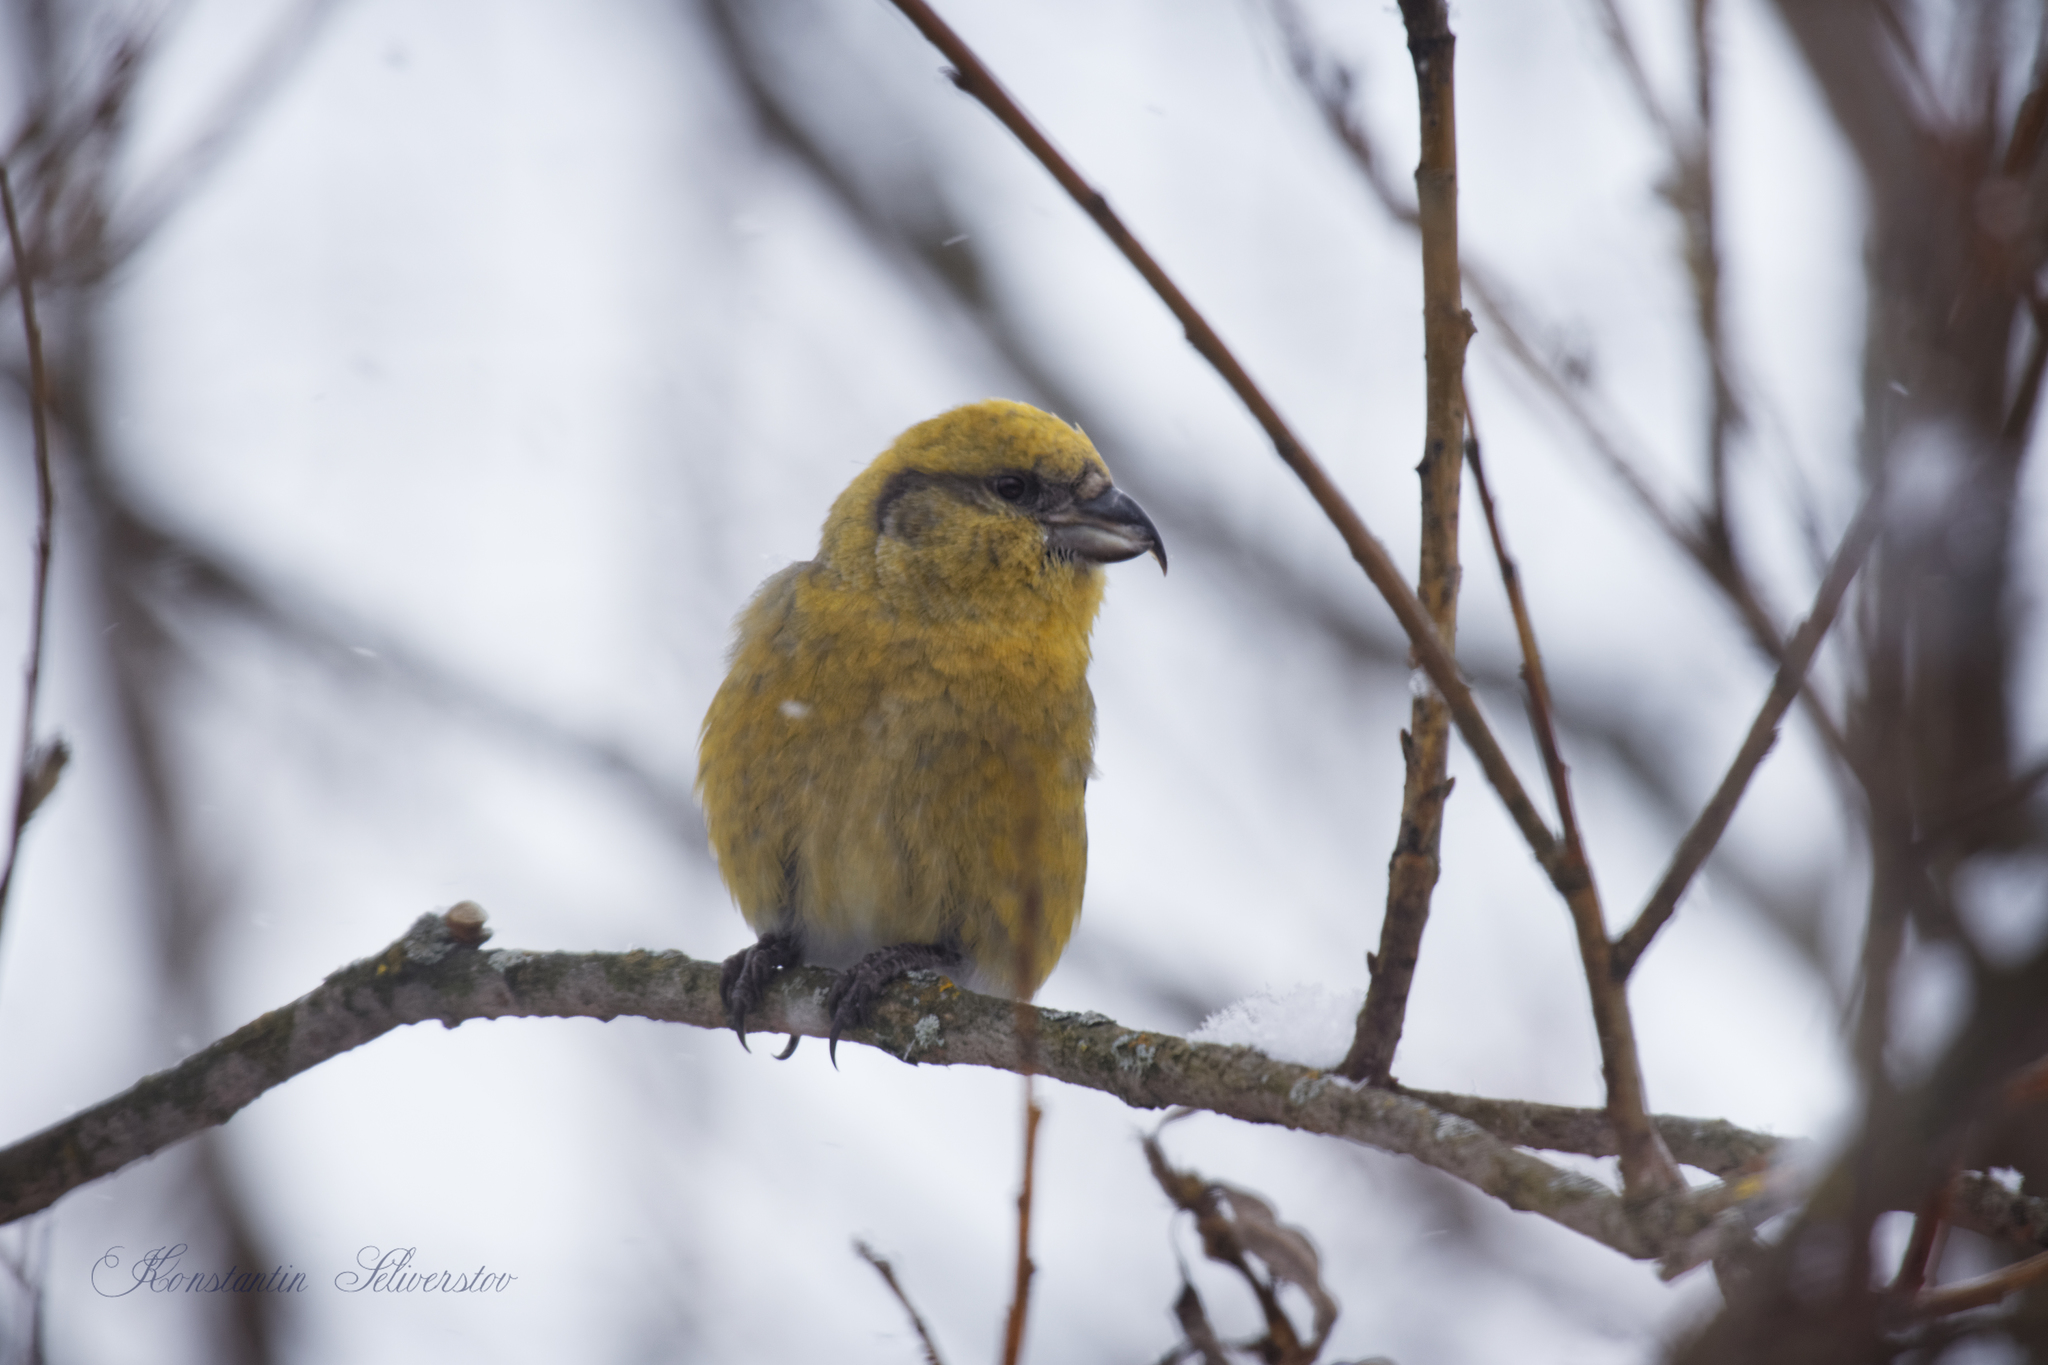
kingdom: Animalia
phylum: Chordata
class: Aves
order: Passeriformes
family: Fringillidae
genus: Loxia
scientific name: Loxia curvirostra
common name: Red crossbill
